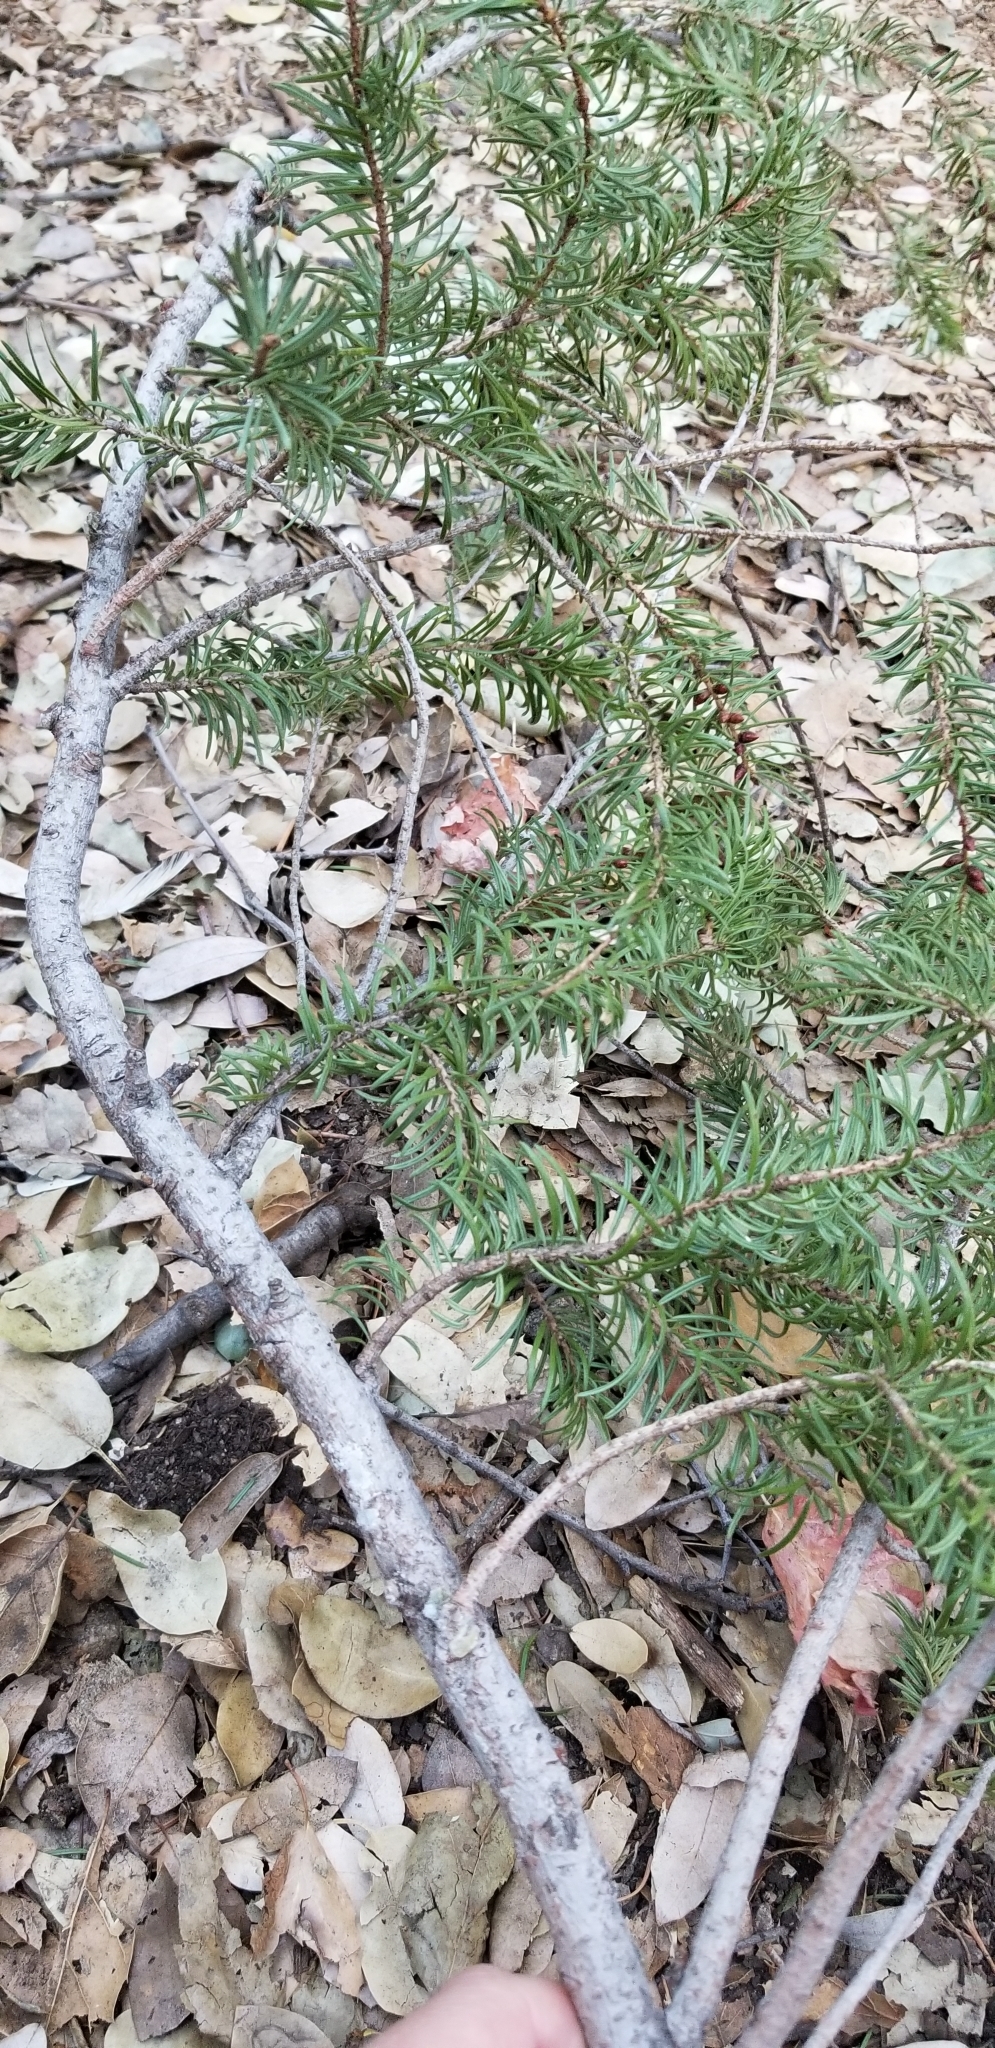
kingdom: Plantae
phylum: Tracheophyta
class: Pinopsida
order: Pinales
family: Pinaceae
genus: Pseudotsuga
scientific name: Pseudotsuga macrocarpa
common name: Big-cone douglas-fir
